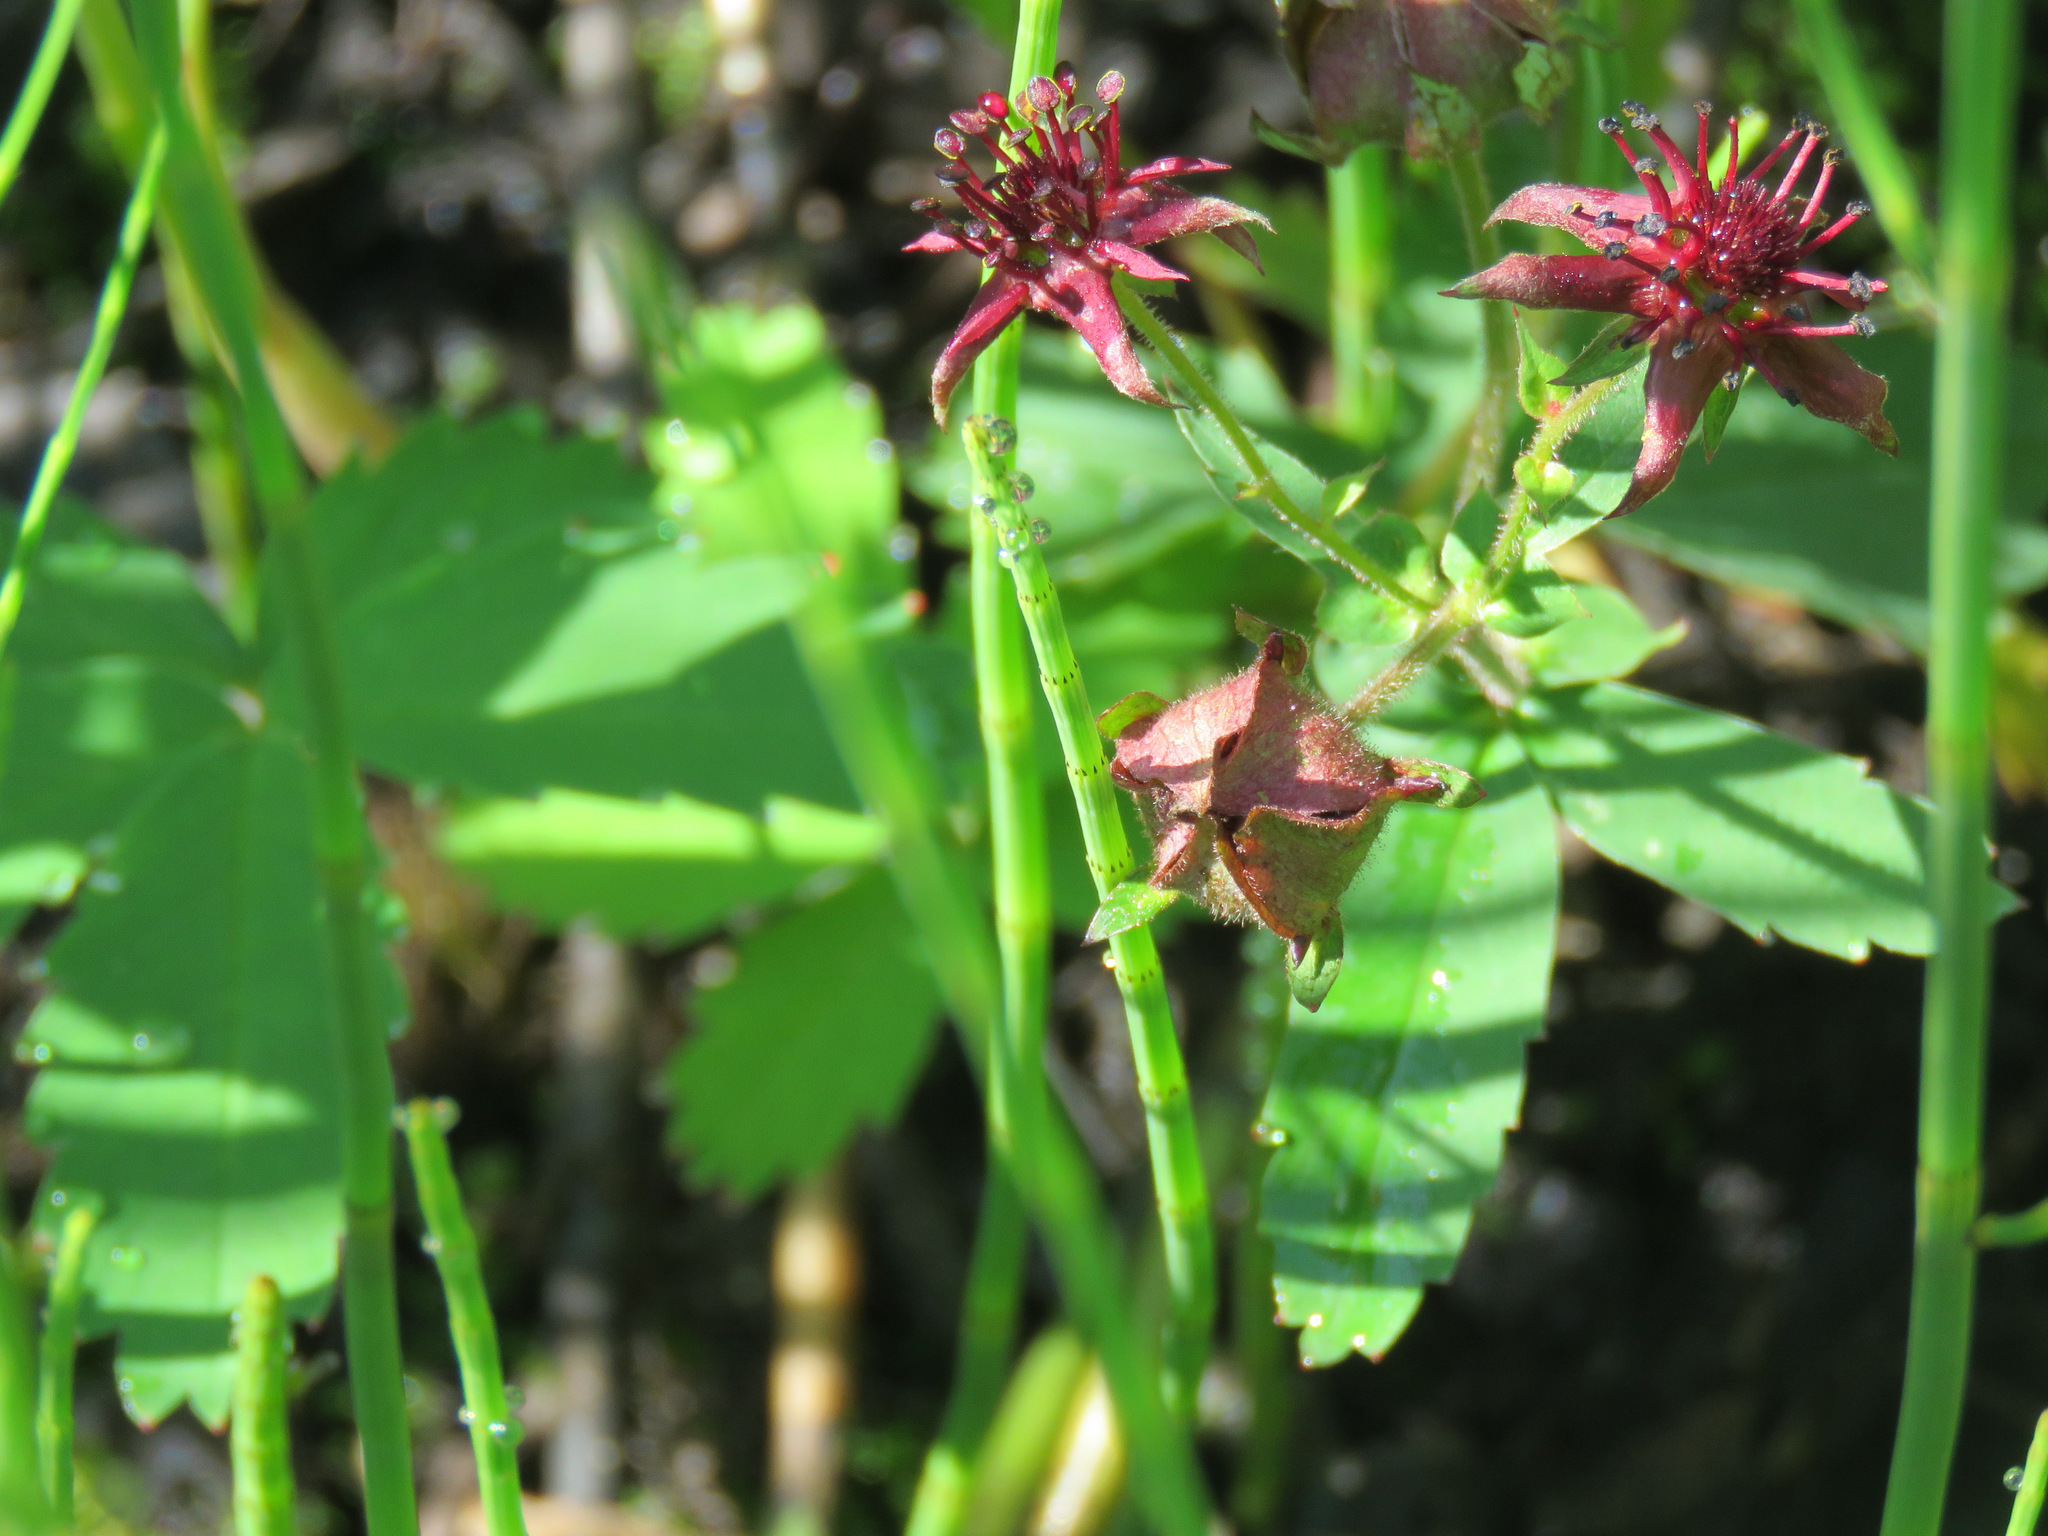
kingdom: Plantae
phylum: Tracheophyta
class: Magnoliopsida
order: Rosales
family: Rosaceae
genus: Comarum
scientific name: Comarum palustre
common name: Marsh cinquefoil
